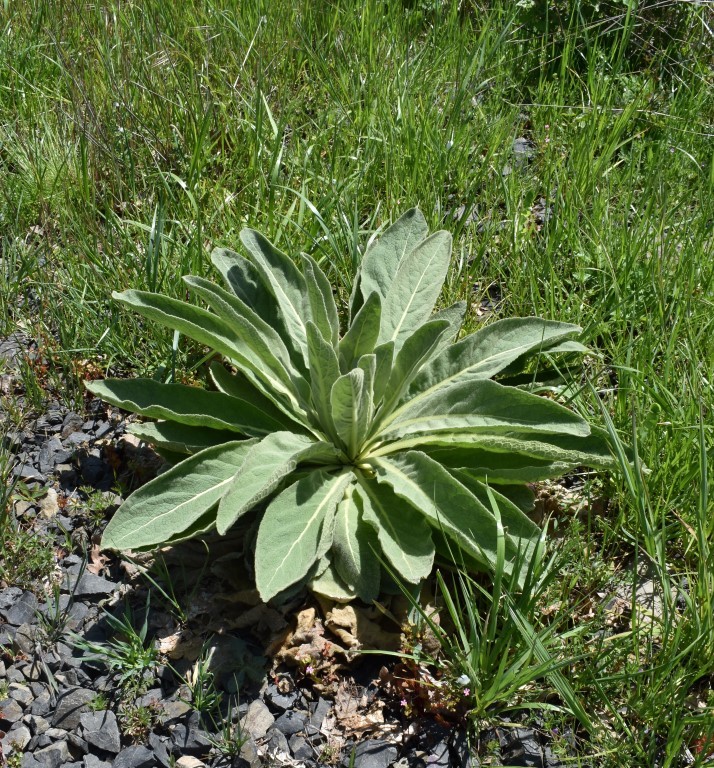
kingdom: Plantae
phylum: Tracheophyta
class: Magnoliopsida
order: Lamiales
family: Scrophulariaceae
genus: Verbascum
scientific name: Verbascum thapsus
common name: Common mullein
